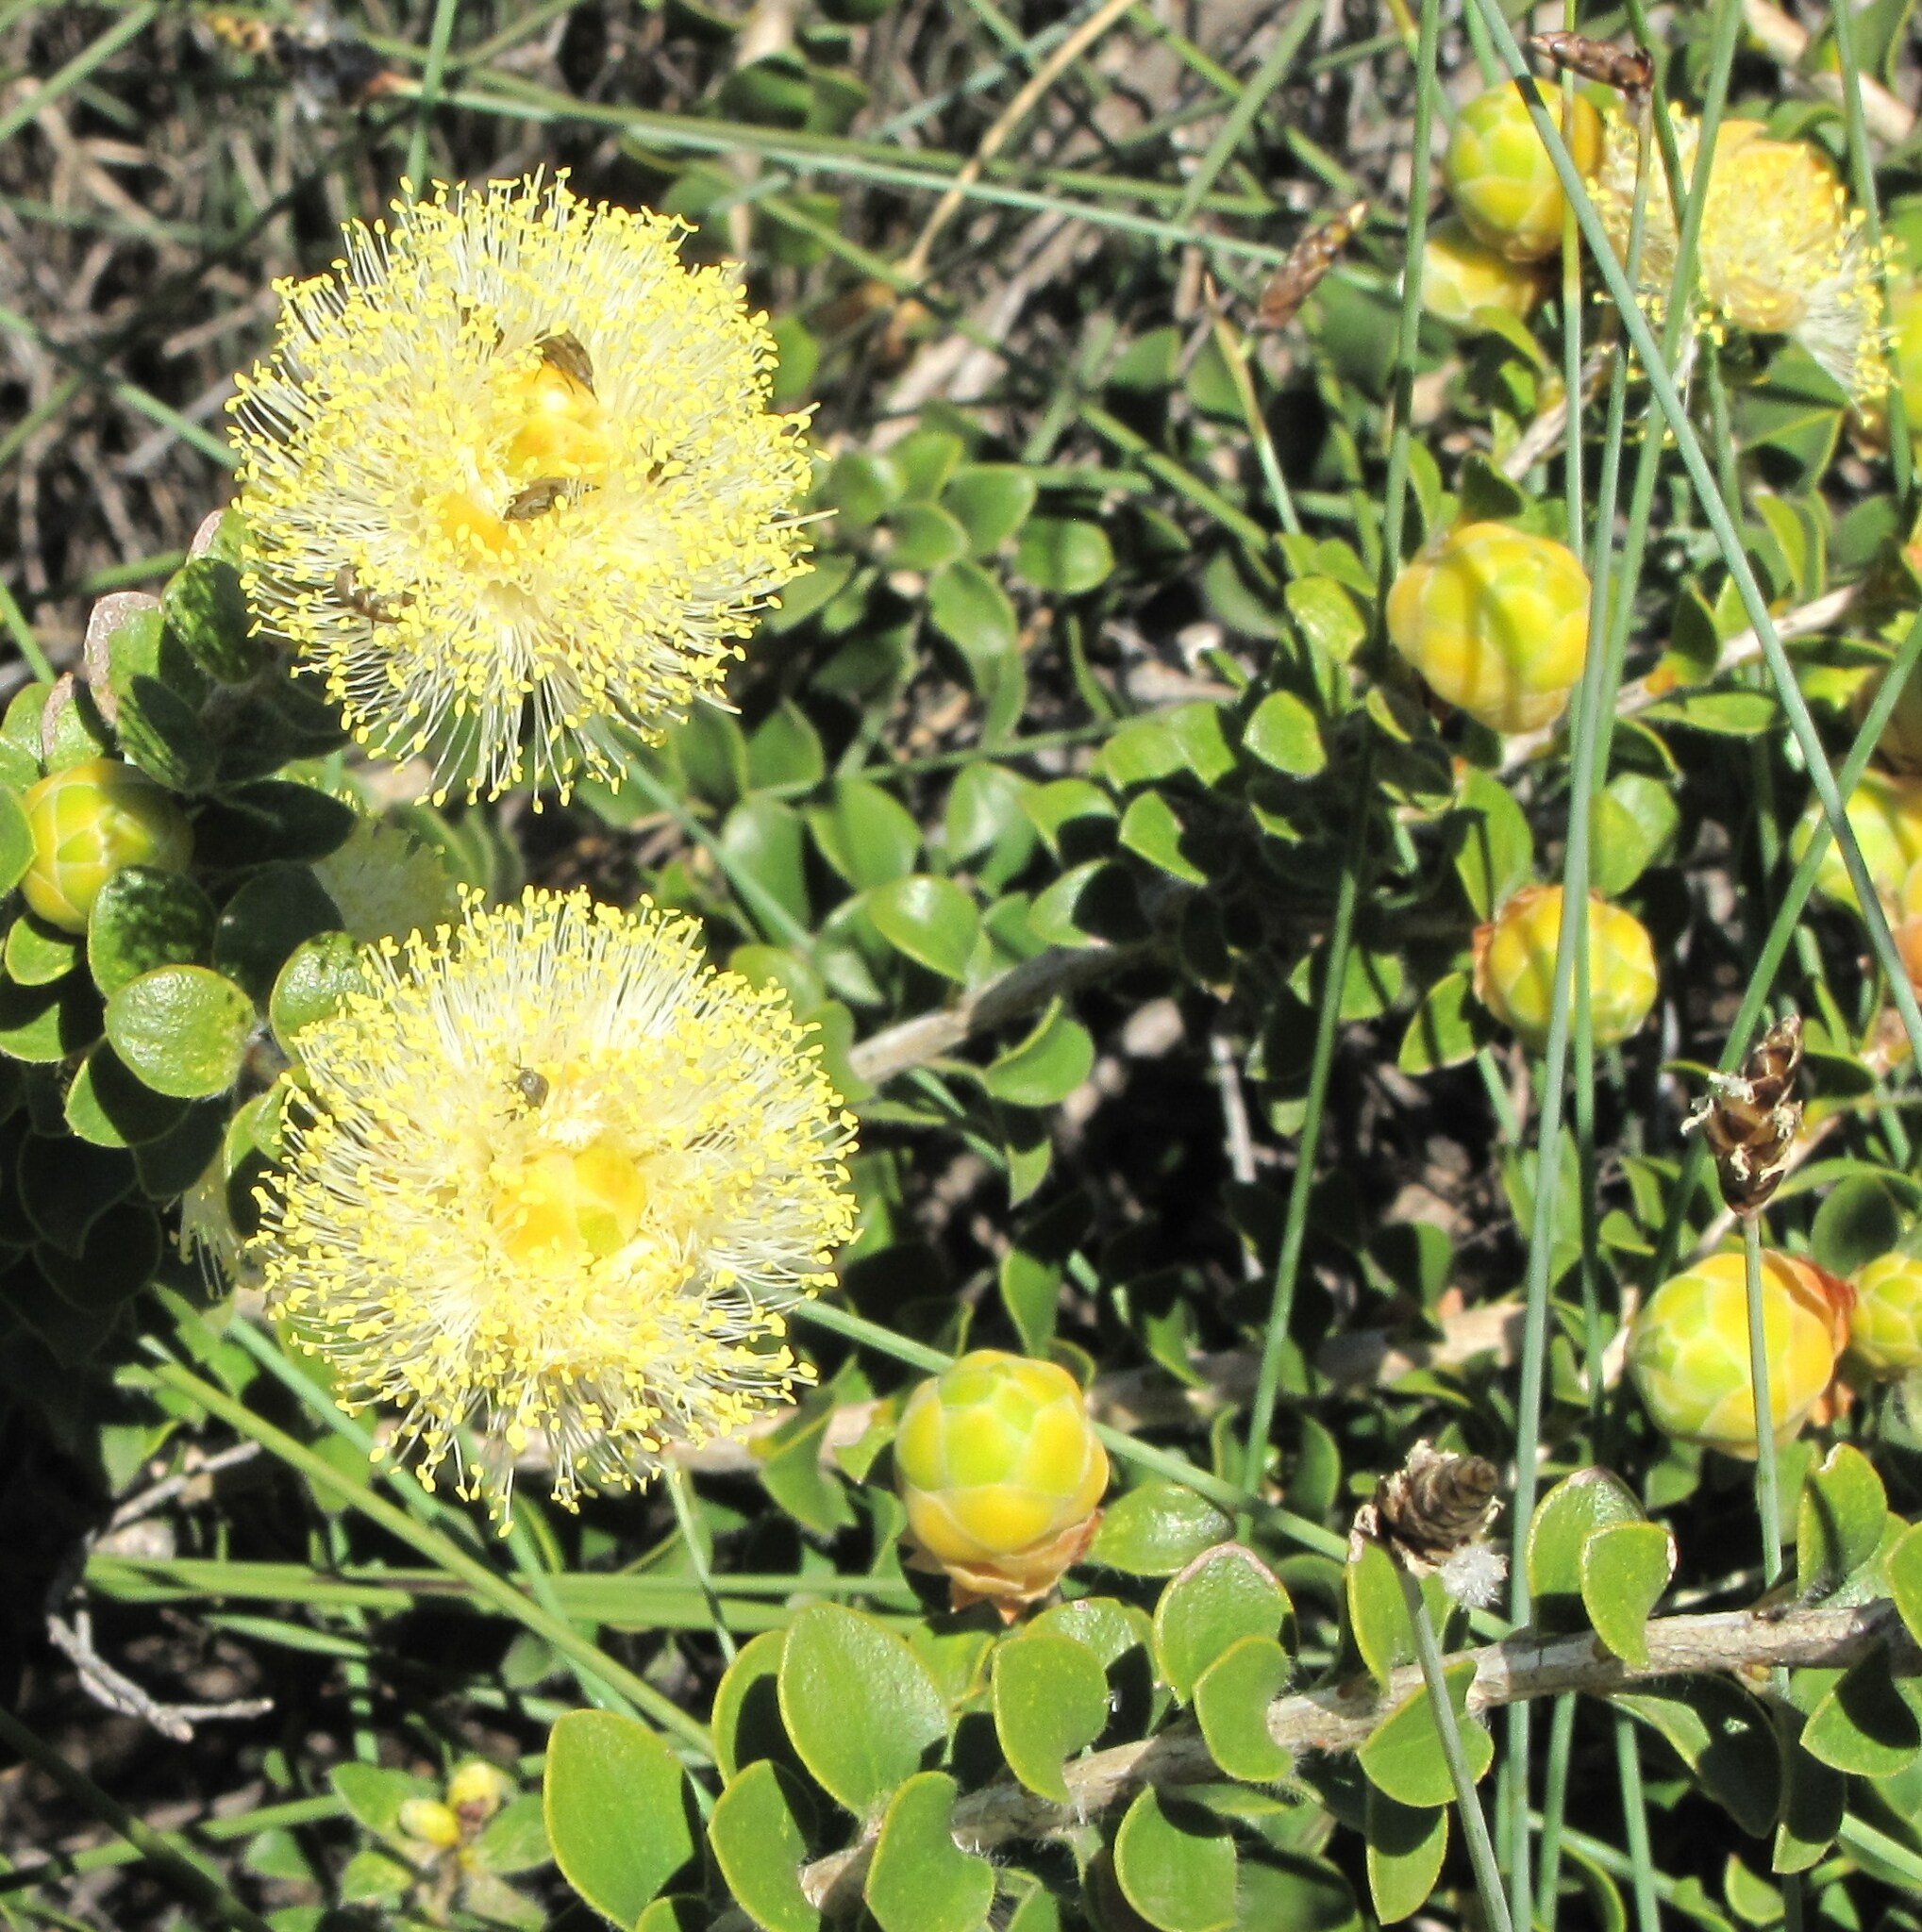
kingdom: Plantae
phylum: Tracheophyta
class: Magnoliopsida
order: Myrtales
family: Myrtaceae
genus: Melaleuca
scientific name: Melaleuca megacephala
